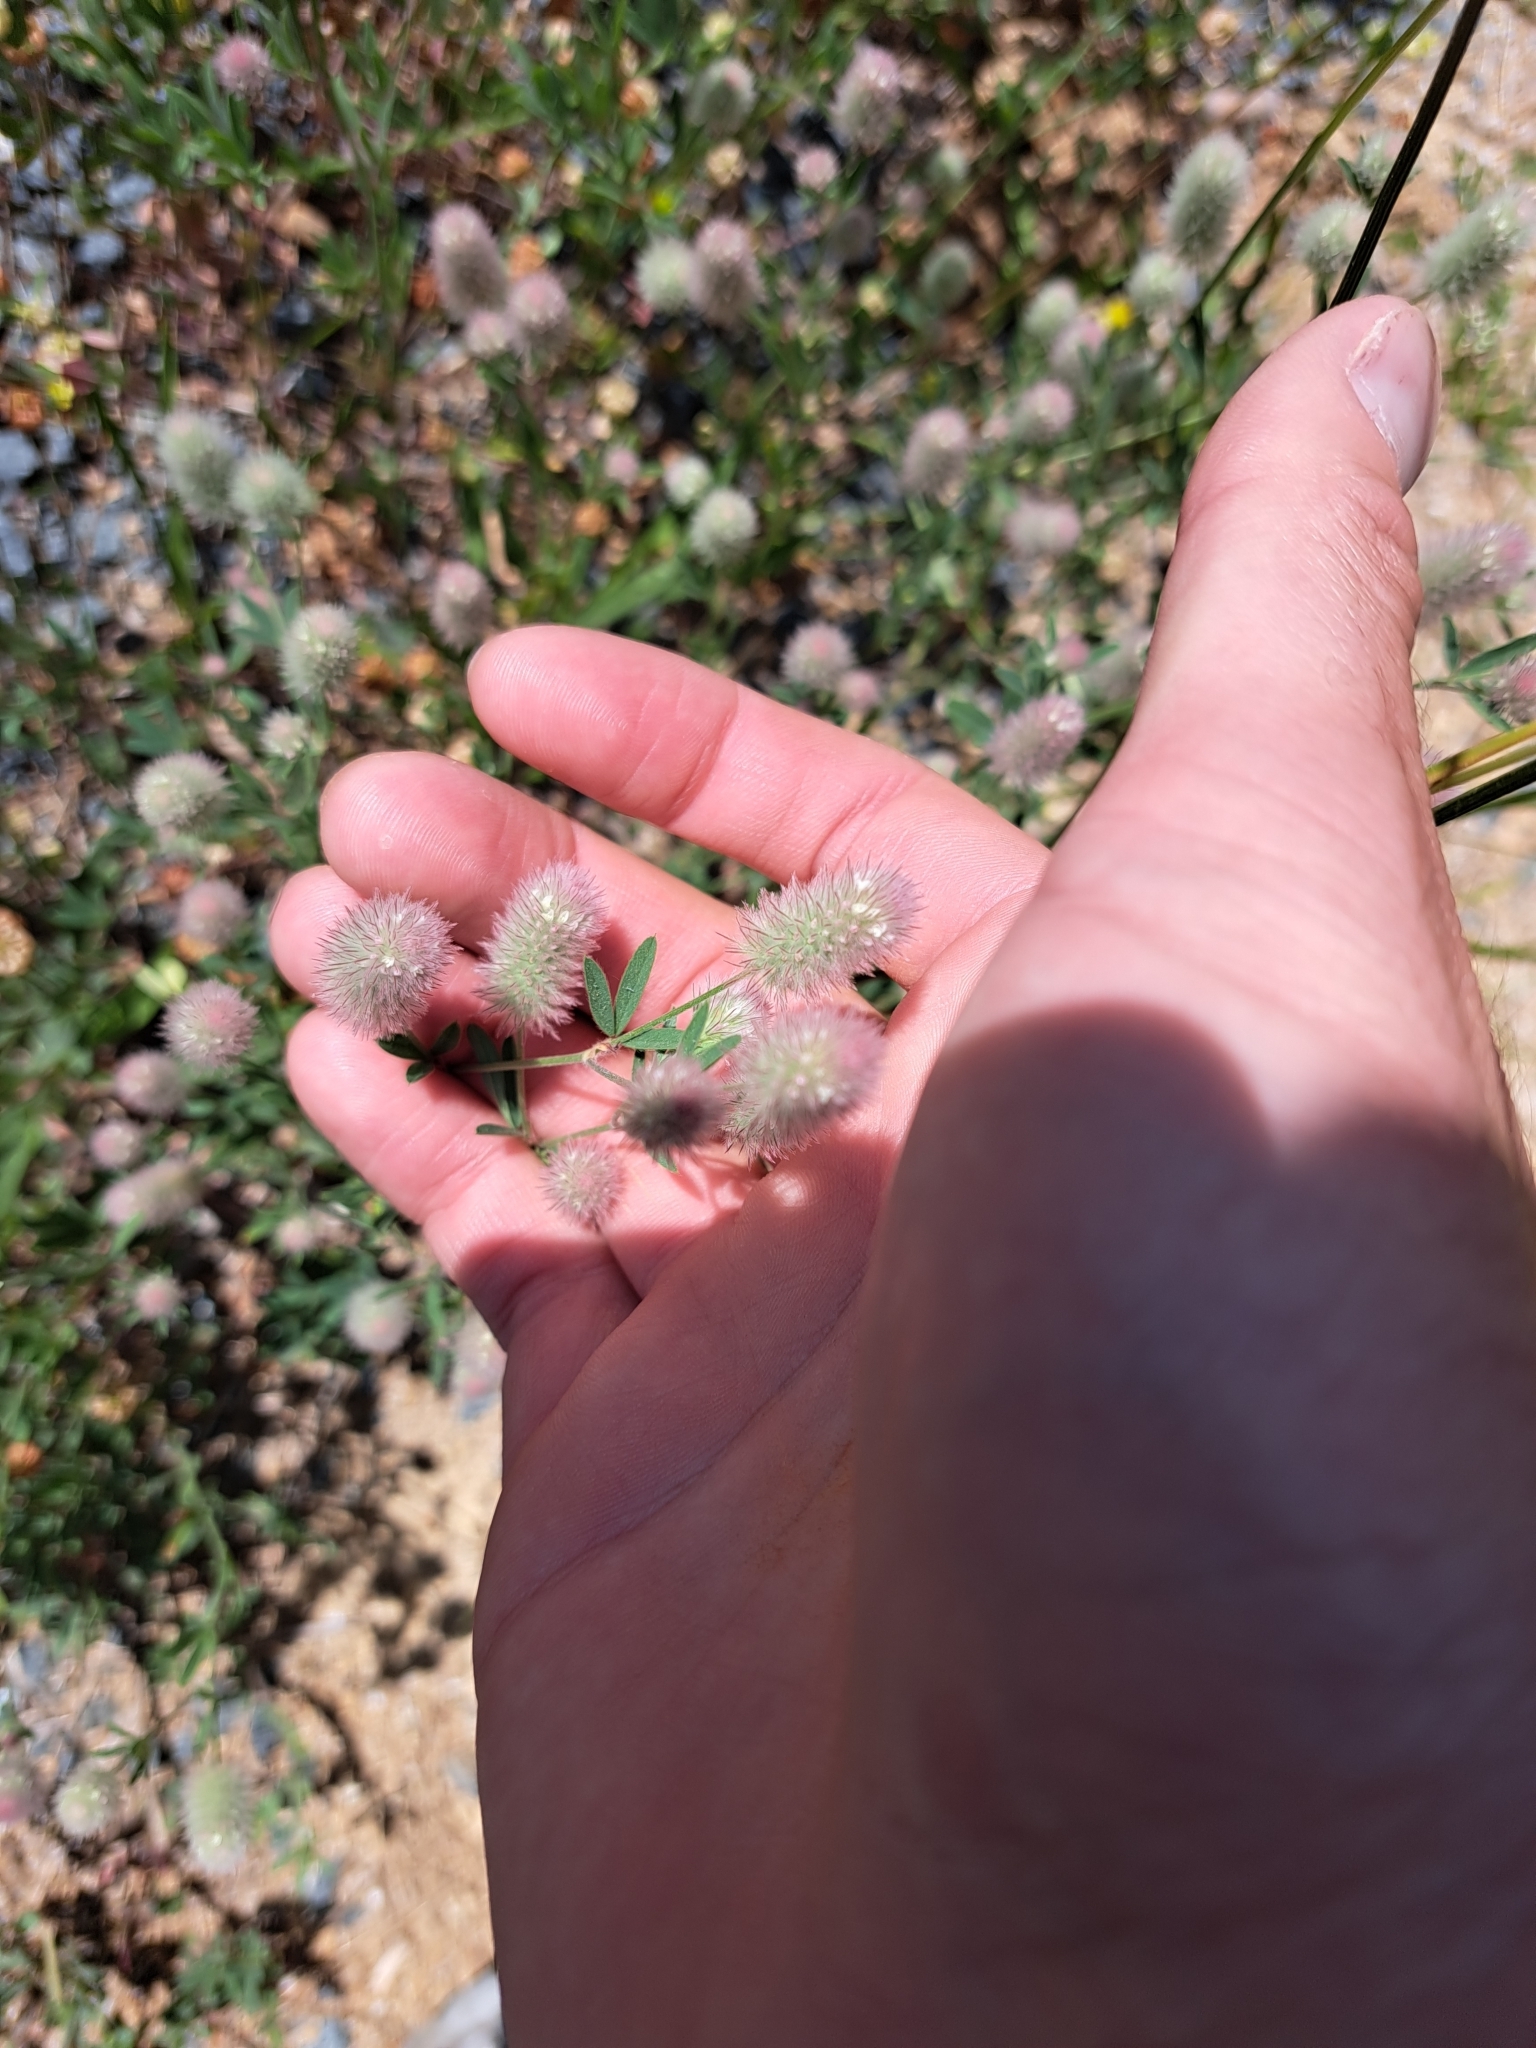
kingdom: Plantae
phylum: Tracheophyta
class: Magnoliopsida
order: Fabales
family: Fabaceae
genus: Trifolium
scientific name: Trifolium arvense
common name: Hare's-foot clover
